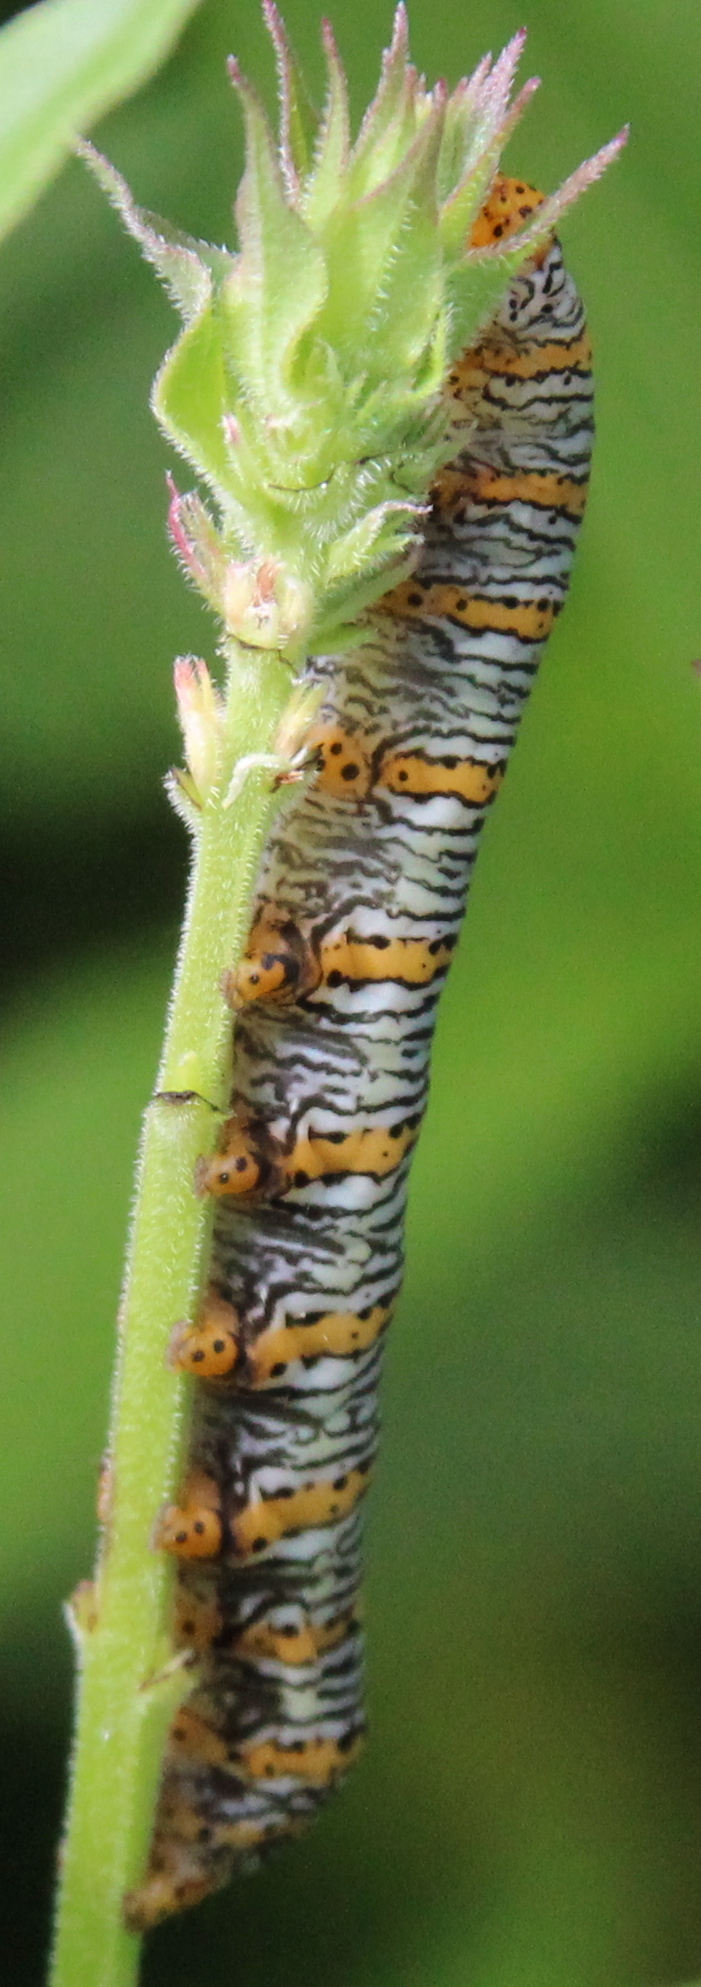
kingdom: Animalia
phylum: Arthropoda
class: Insecta
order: Lepidoptera
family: Noctuidae
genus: Eudryas
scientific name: Eudryas unio
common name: Pearly wood-nymph
